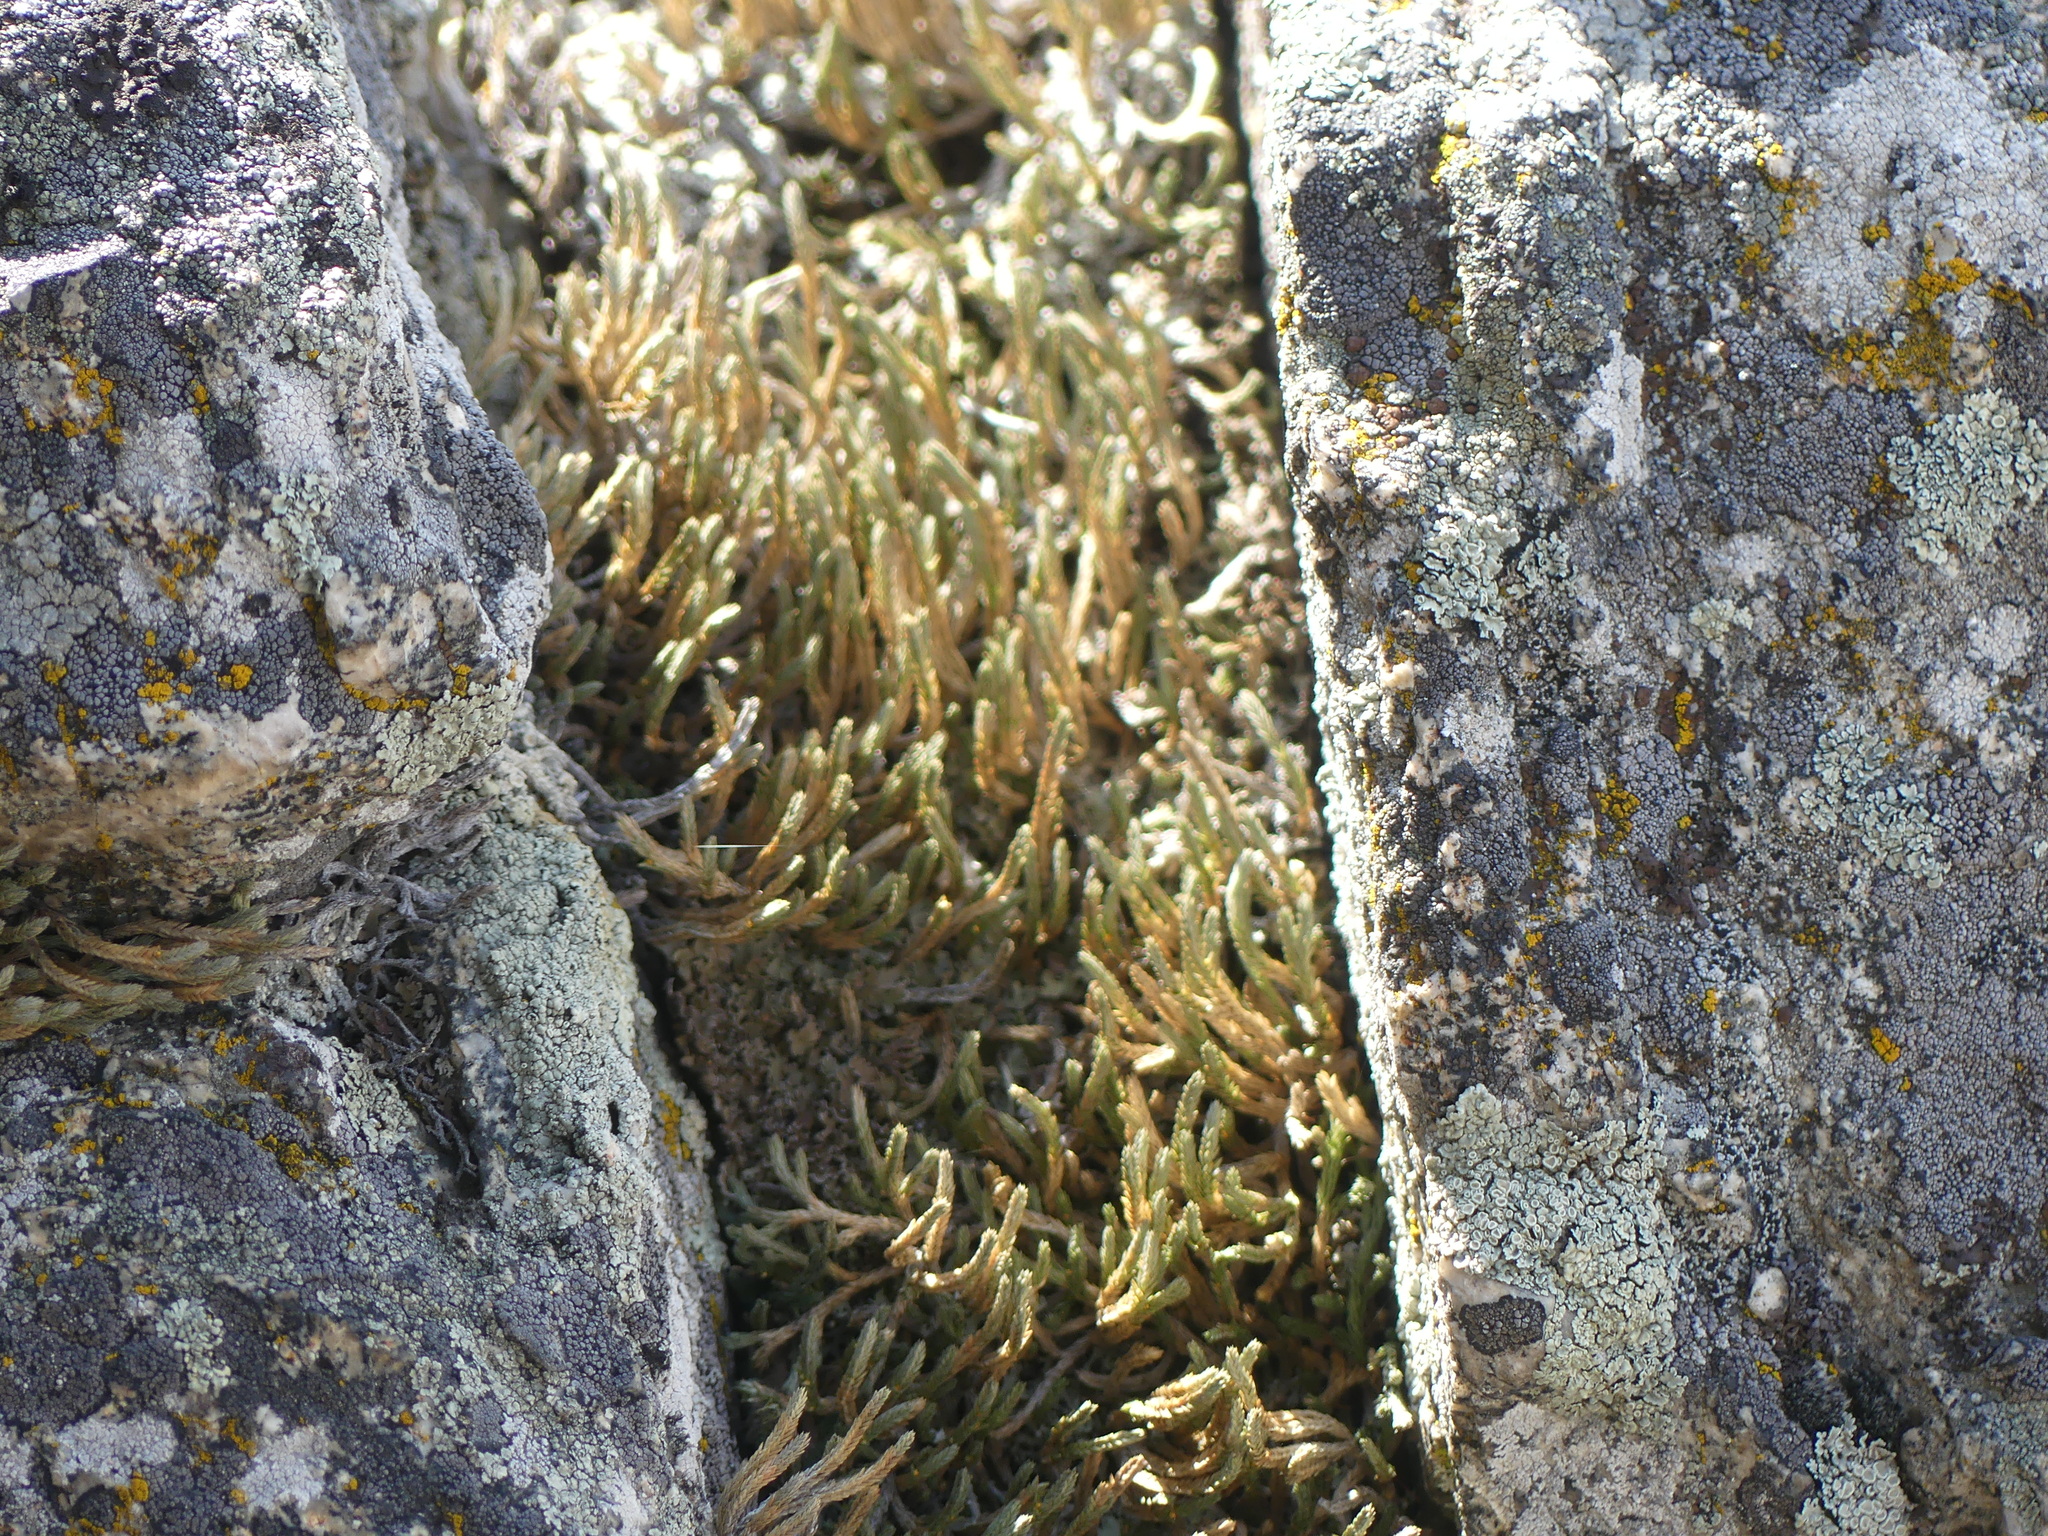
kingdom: Plantae
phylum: Tracheophyta
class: Lycopodiopsida
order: Selaginellales
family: Selaginellaceae
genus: Selaginella
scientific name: Selaginella wallacei
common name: Wallace's selaginella
